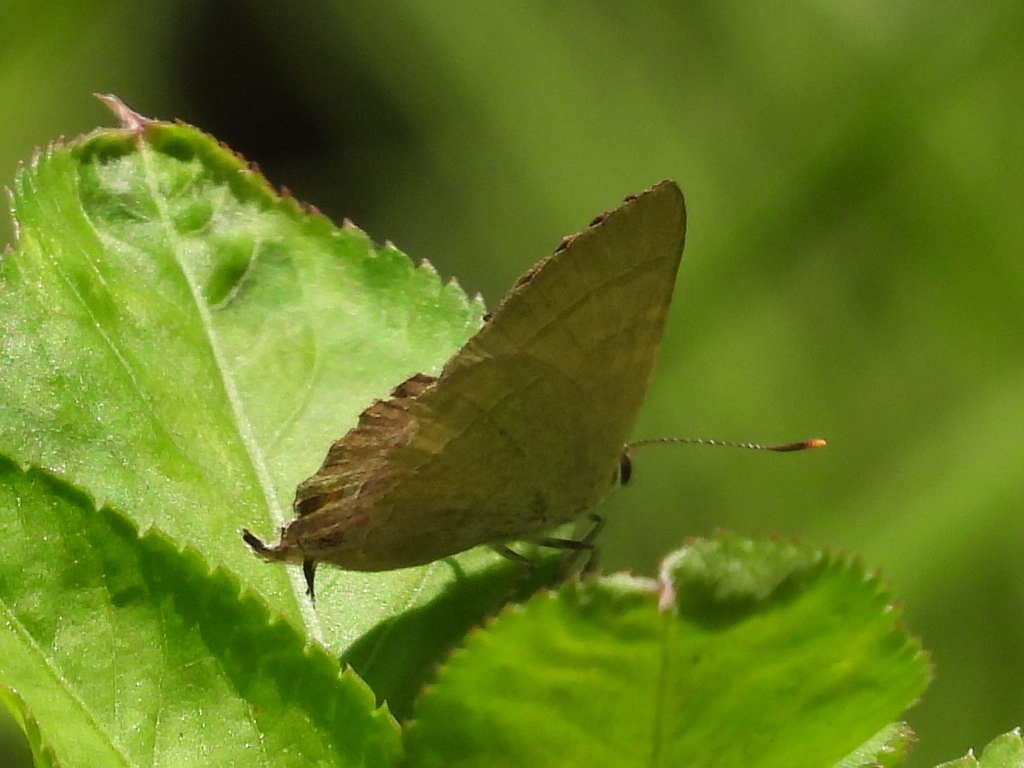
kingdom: Animalia
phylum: Arthropoda
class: Insecta
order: Lepidoptera
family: Lycaenidae
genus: Rapala
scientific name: Rapala manea
